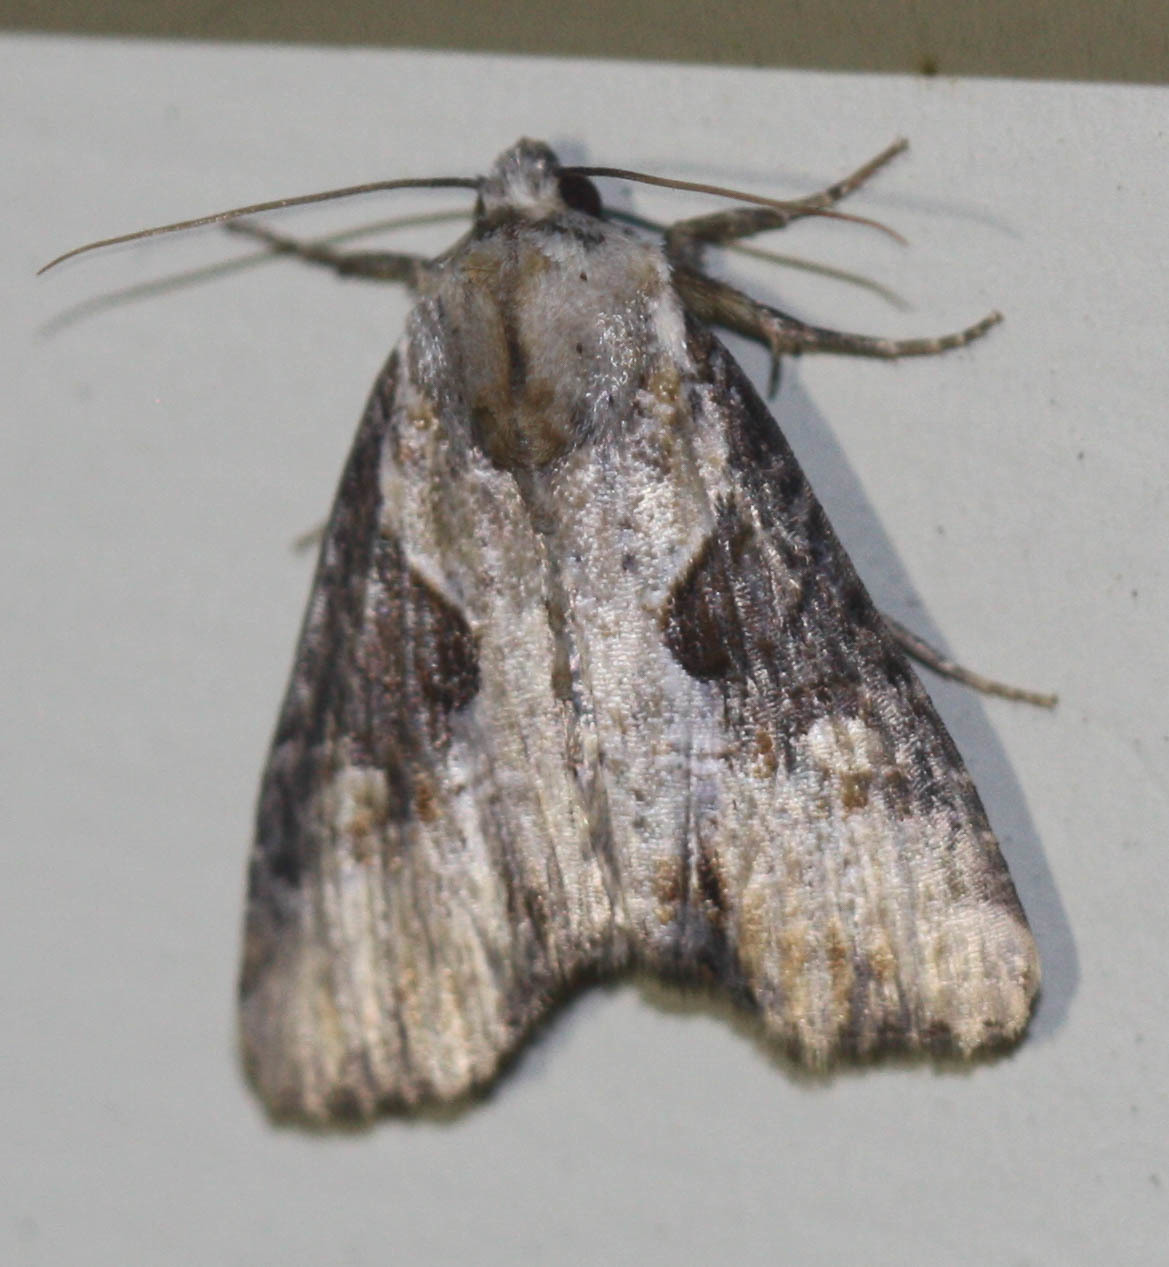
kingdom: Animalia
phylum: Arthropoda
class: Insecta
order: Lepidoptera
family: Noctuidae
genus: Lateroligia
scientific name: Lateroligia ophiogramma
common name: Double lobed
